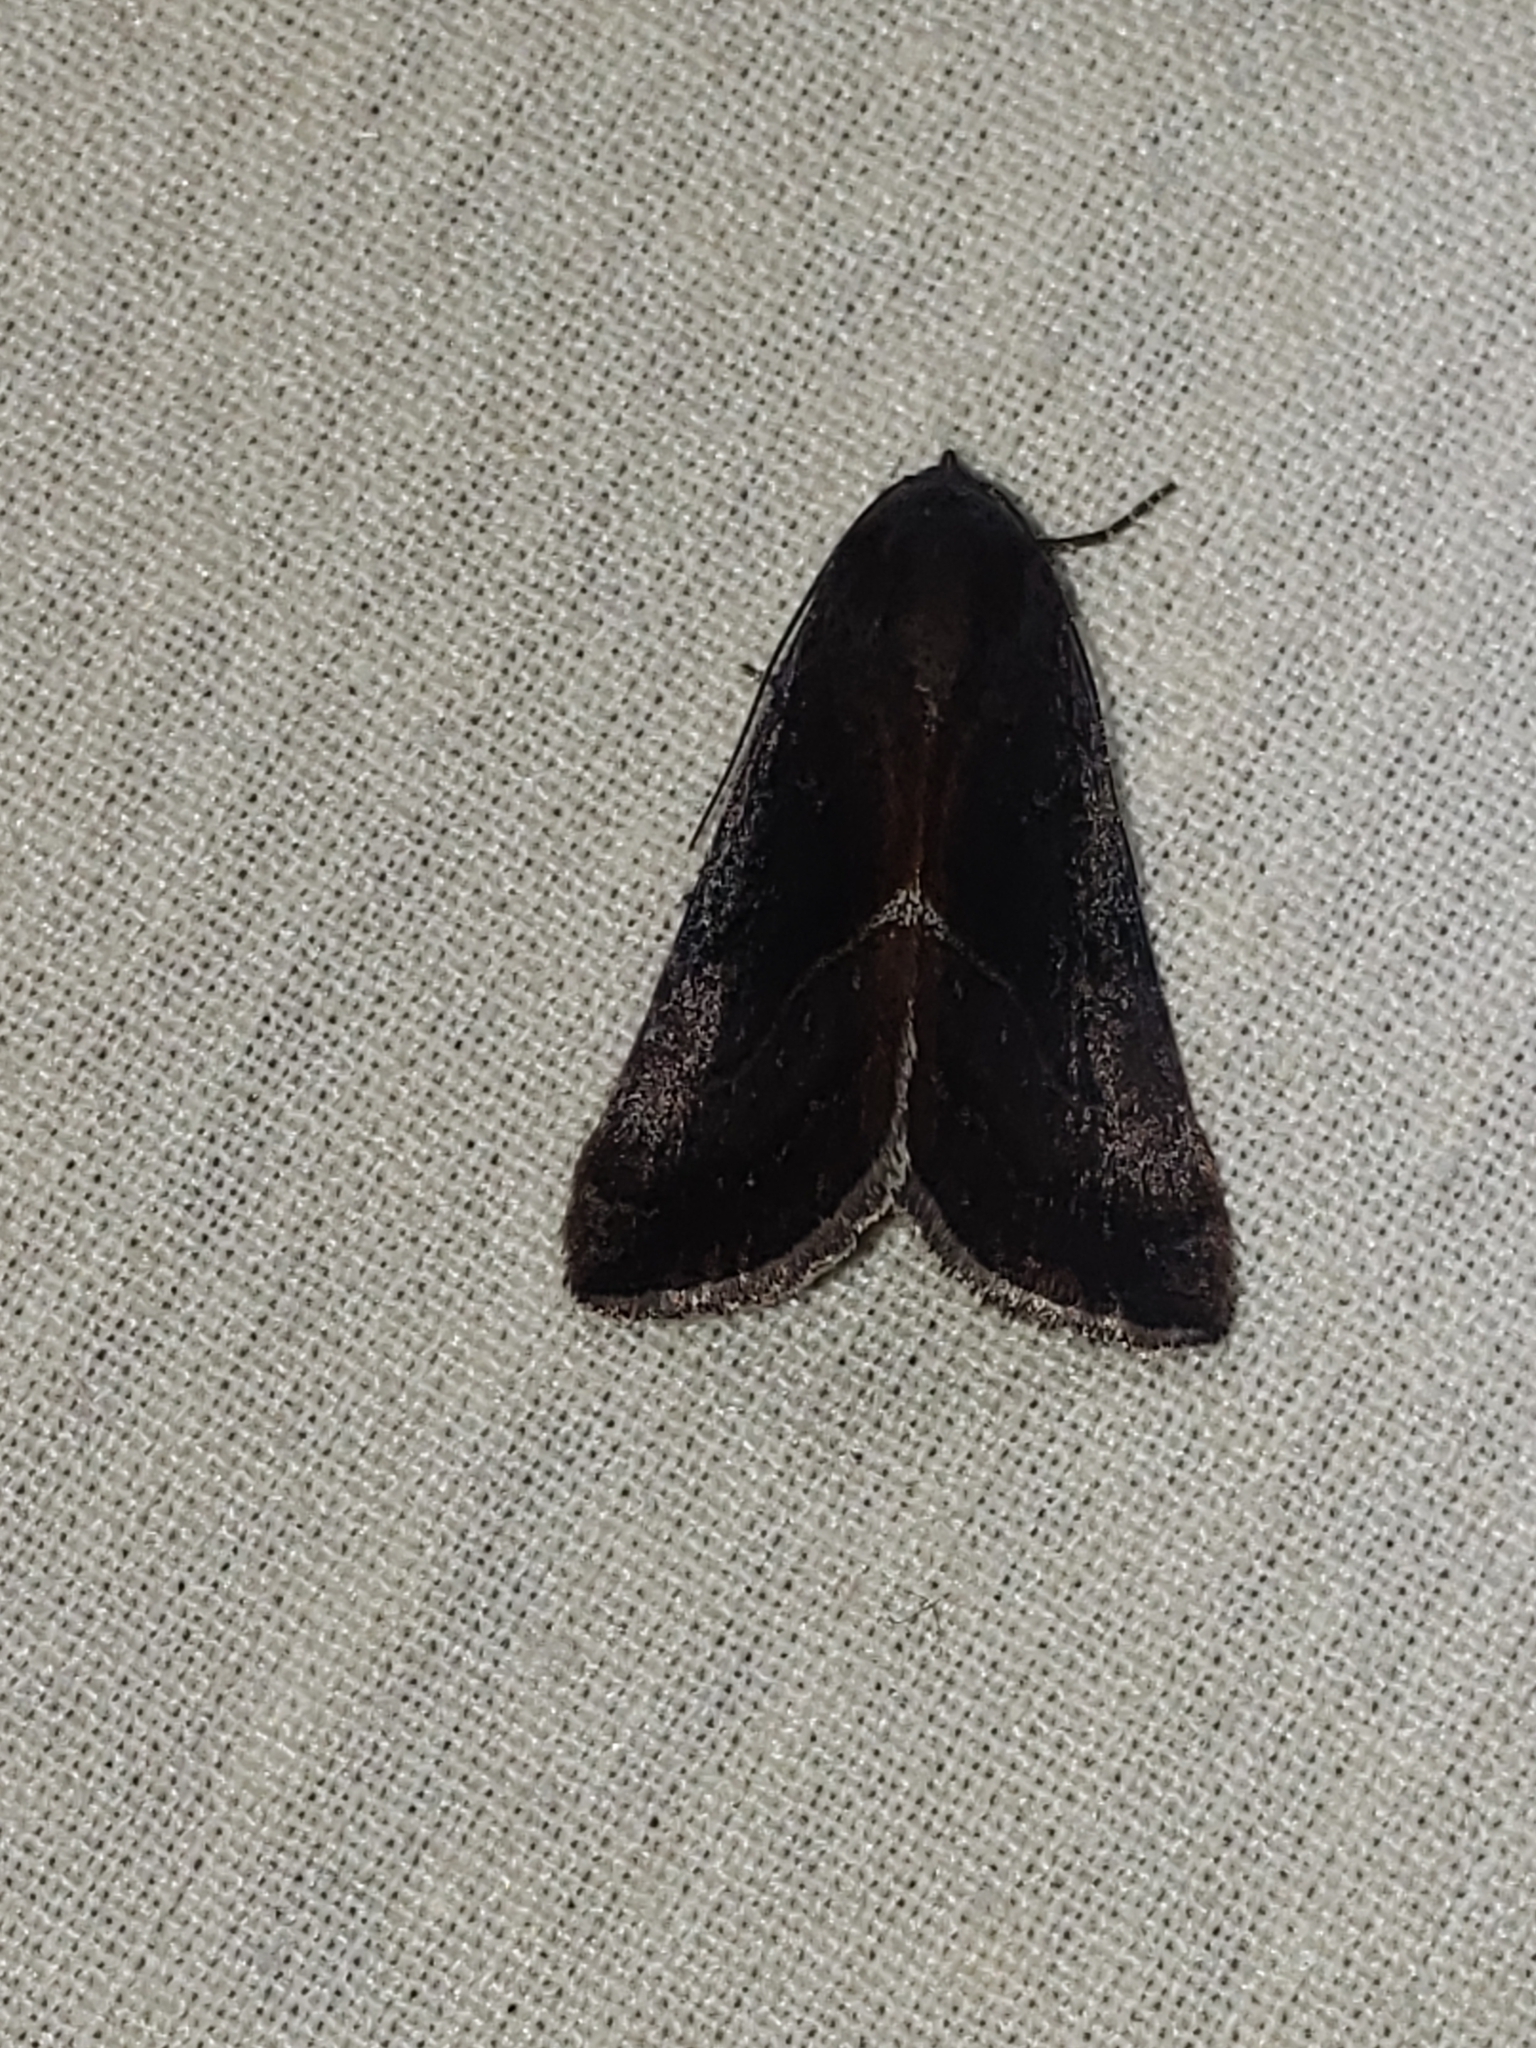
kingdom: Animalia
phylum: Arthropoda
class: Insecta
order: Lepidoptera
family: Noctuidae
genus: Galgula
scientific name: Galgula partita
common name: Wedgeling
